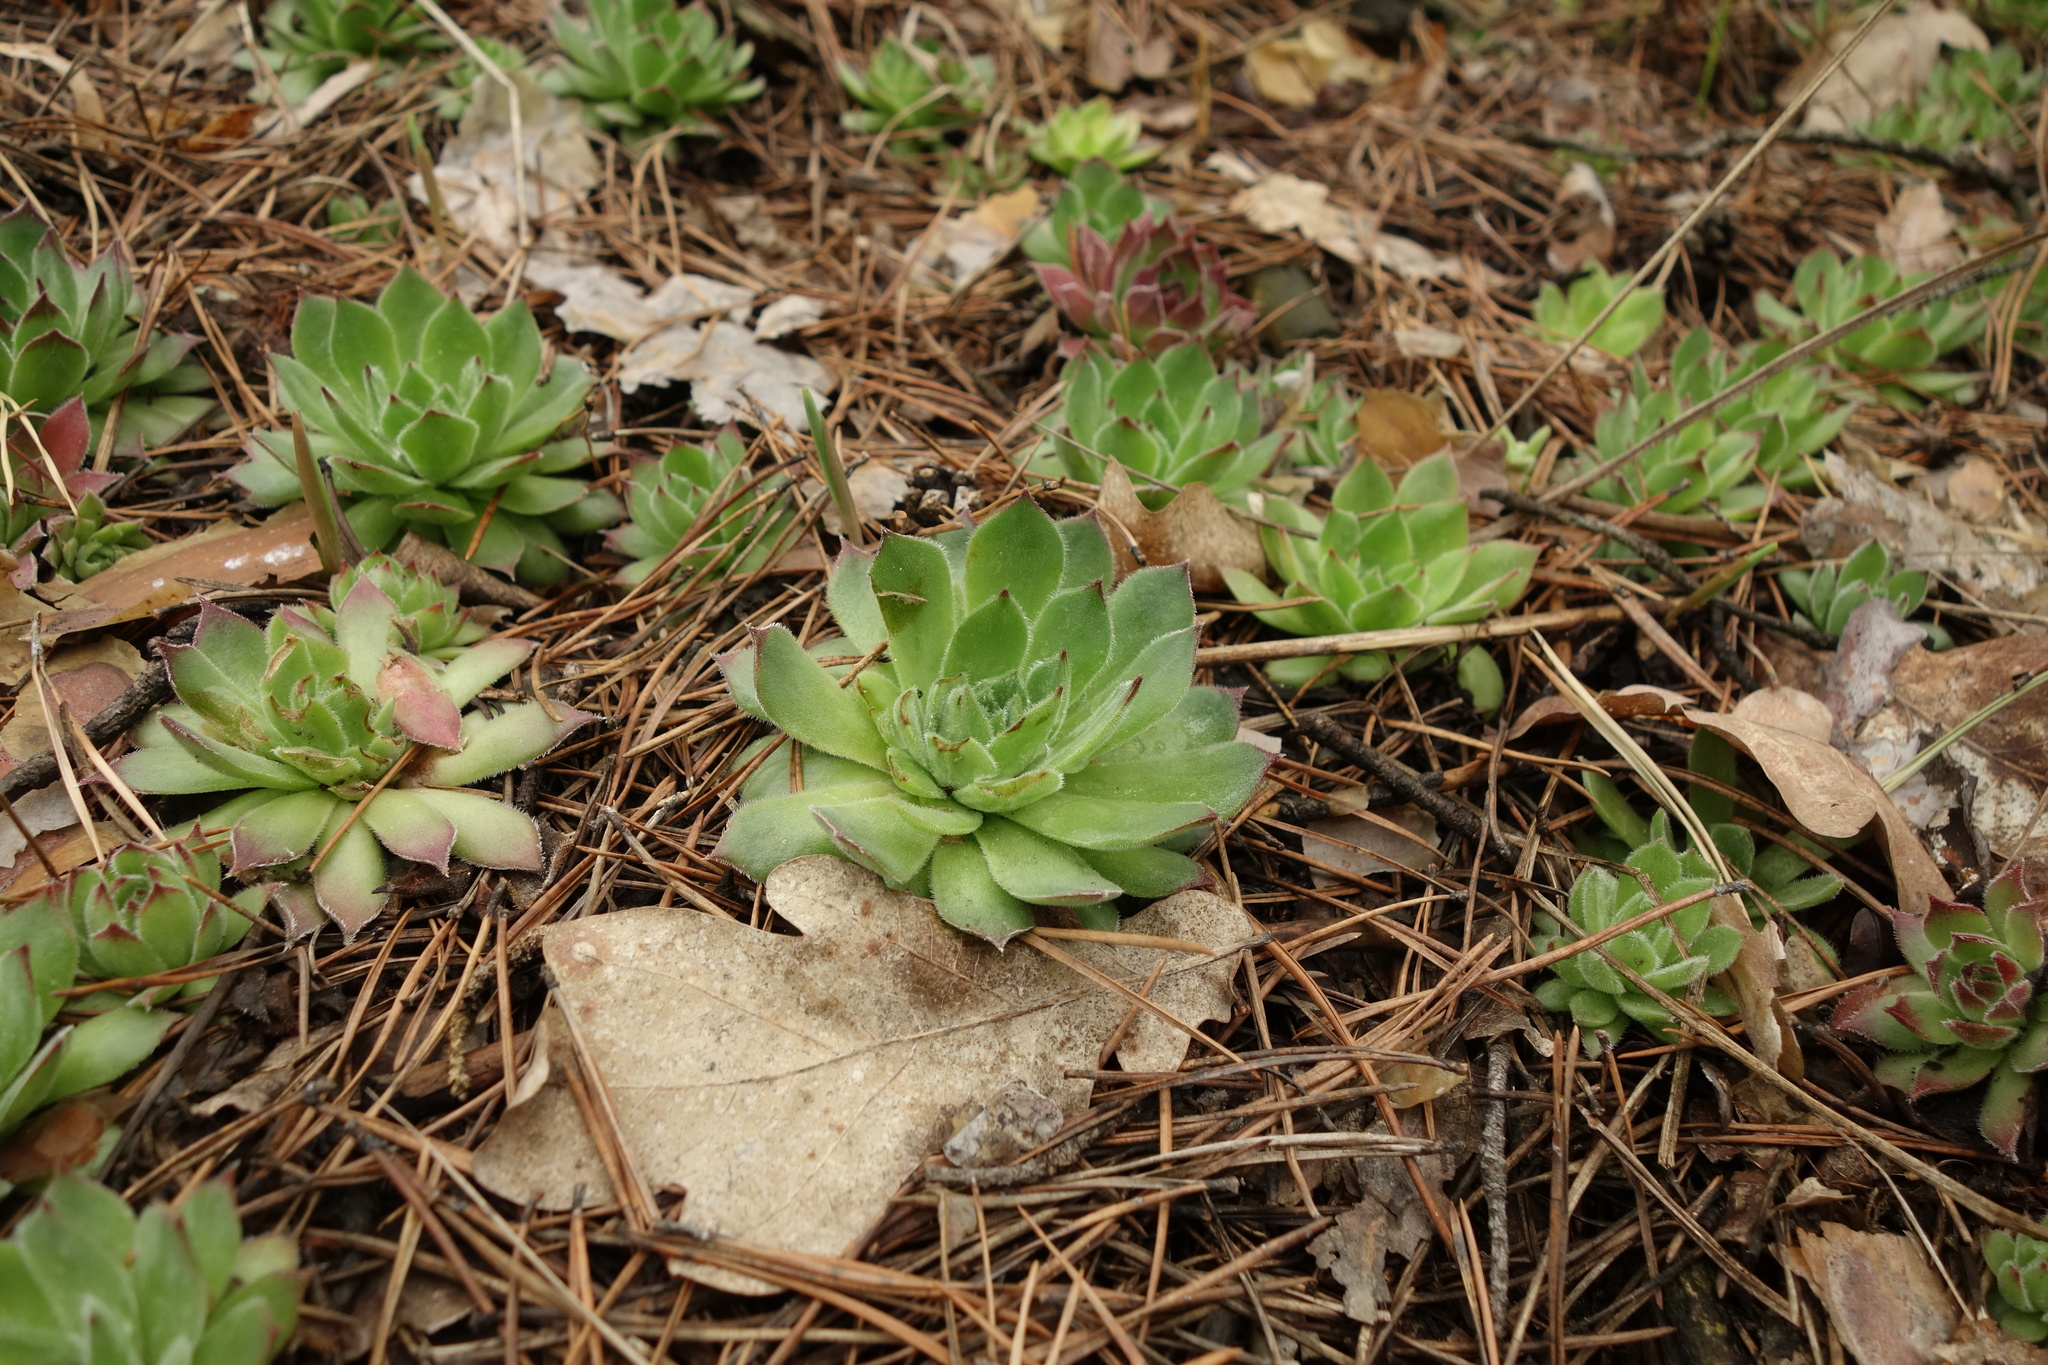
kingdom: Plantae
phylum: Tracheophyta
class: Magnoliopsida
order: Saxifragales
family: Crassulaceae
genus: Sempervivum
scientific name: Sempervivum ruthenicum
